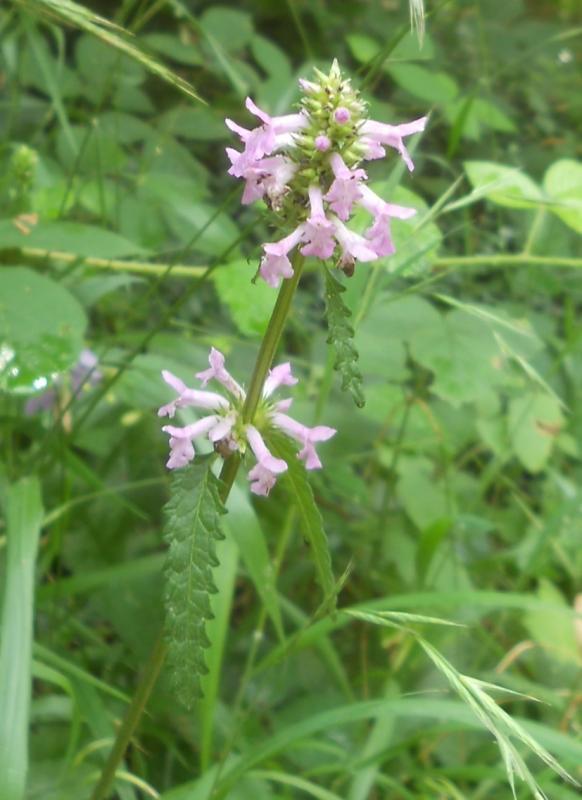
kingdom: Plantae
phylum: Tracheophyta
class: Magnoliopsida
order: Lamiales
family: Lamiaceae
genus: Betonica
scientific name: Betonica officinalis
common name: Bishop's-wort
